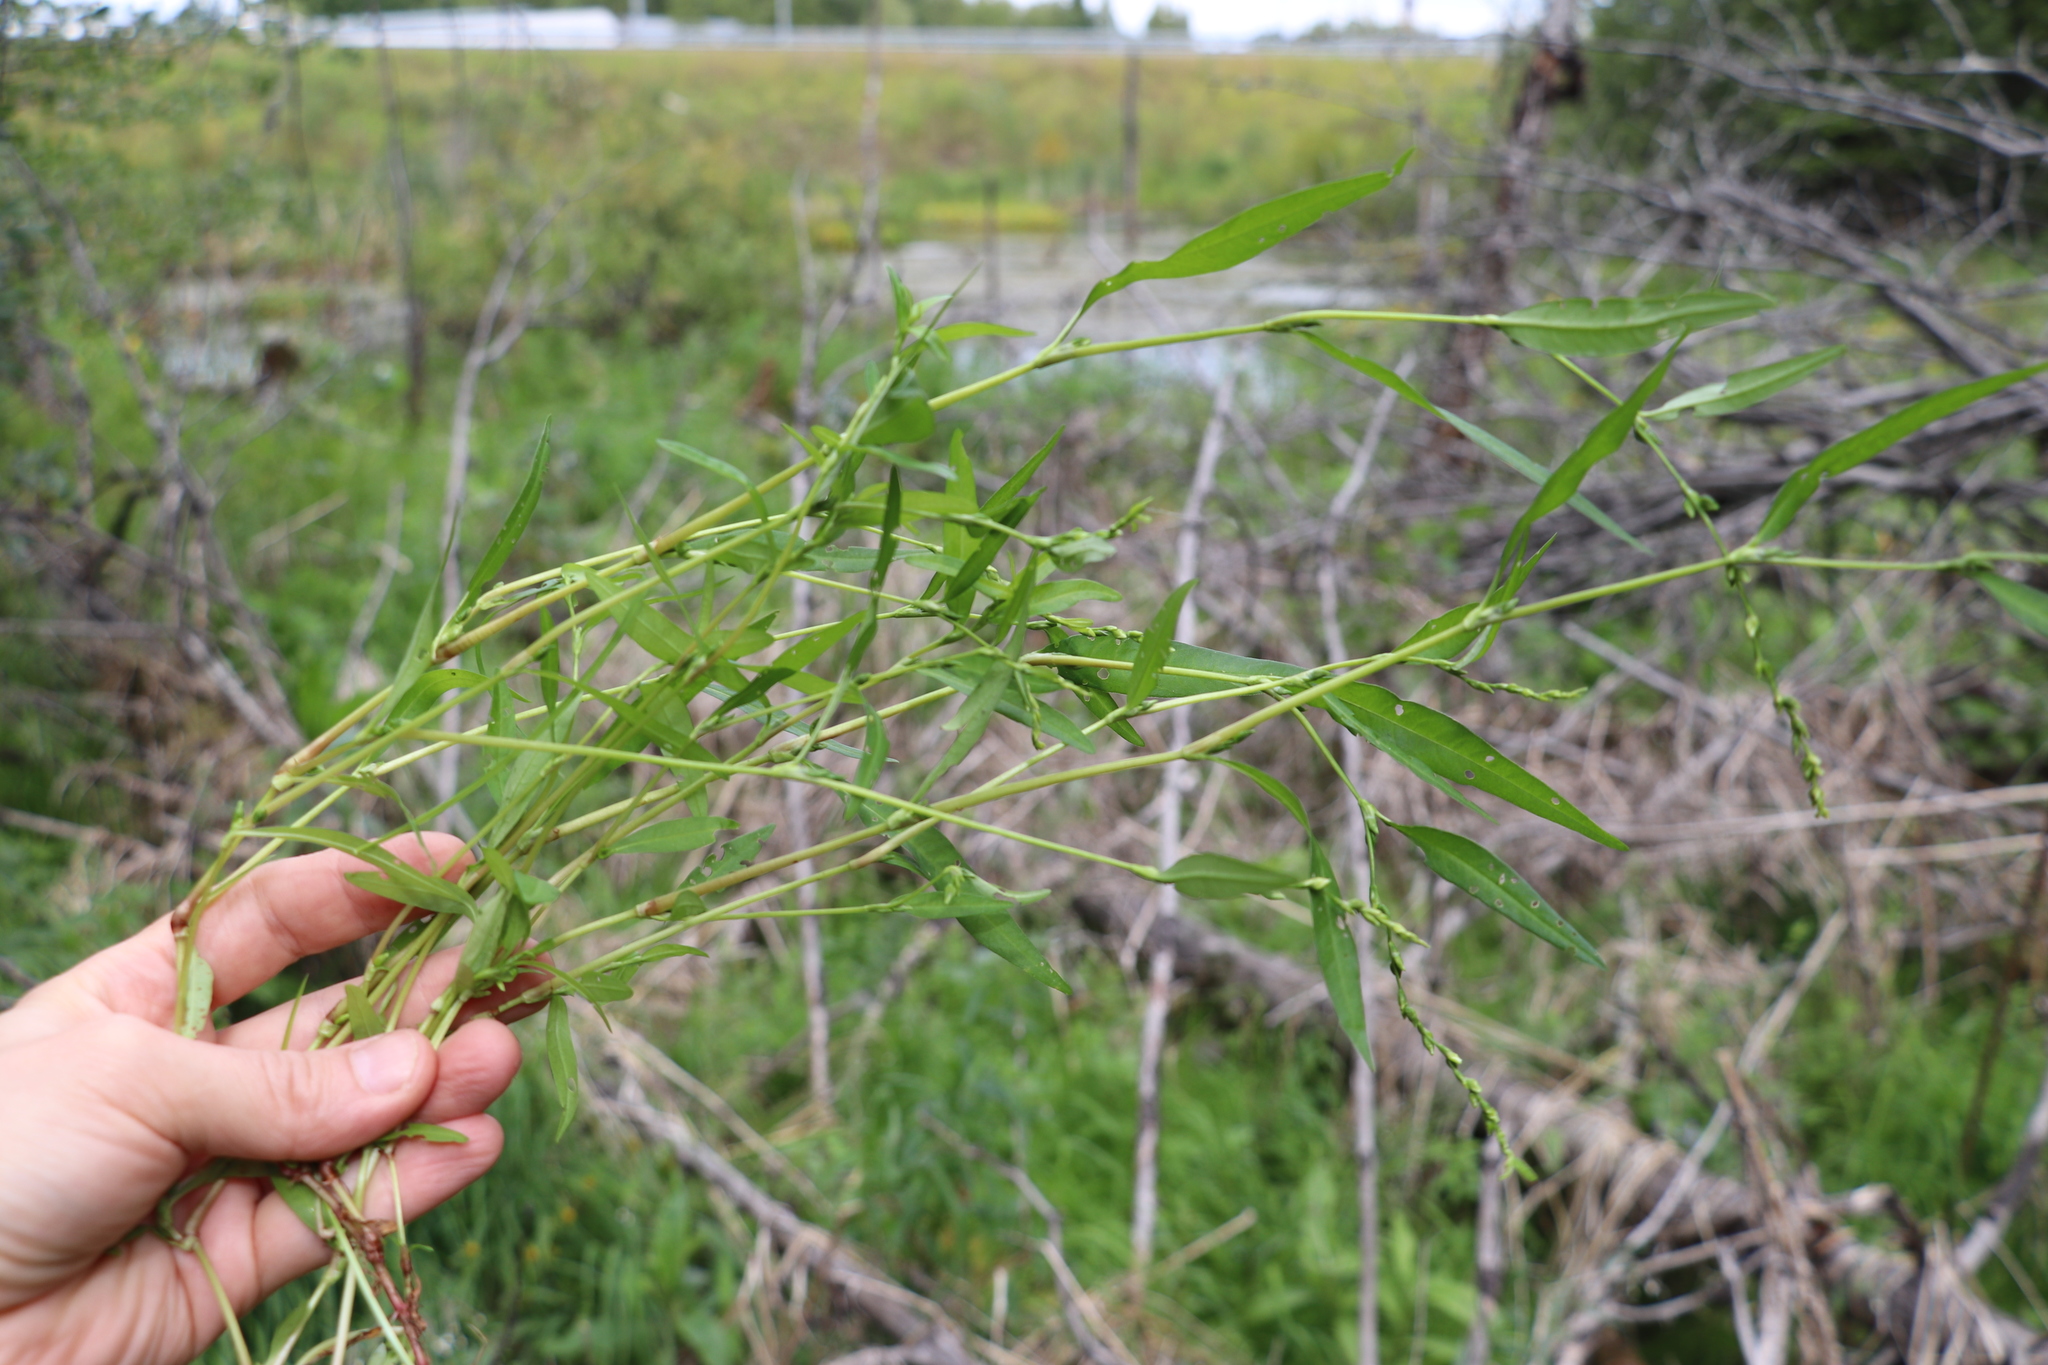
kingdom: Plantae
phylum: Tracheophyta
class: Magnoliopsida
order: Caryophyllales
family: Polygonaceae
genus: Persicaria
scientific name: Persicaria hydropiper
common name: Water-pepper
